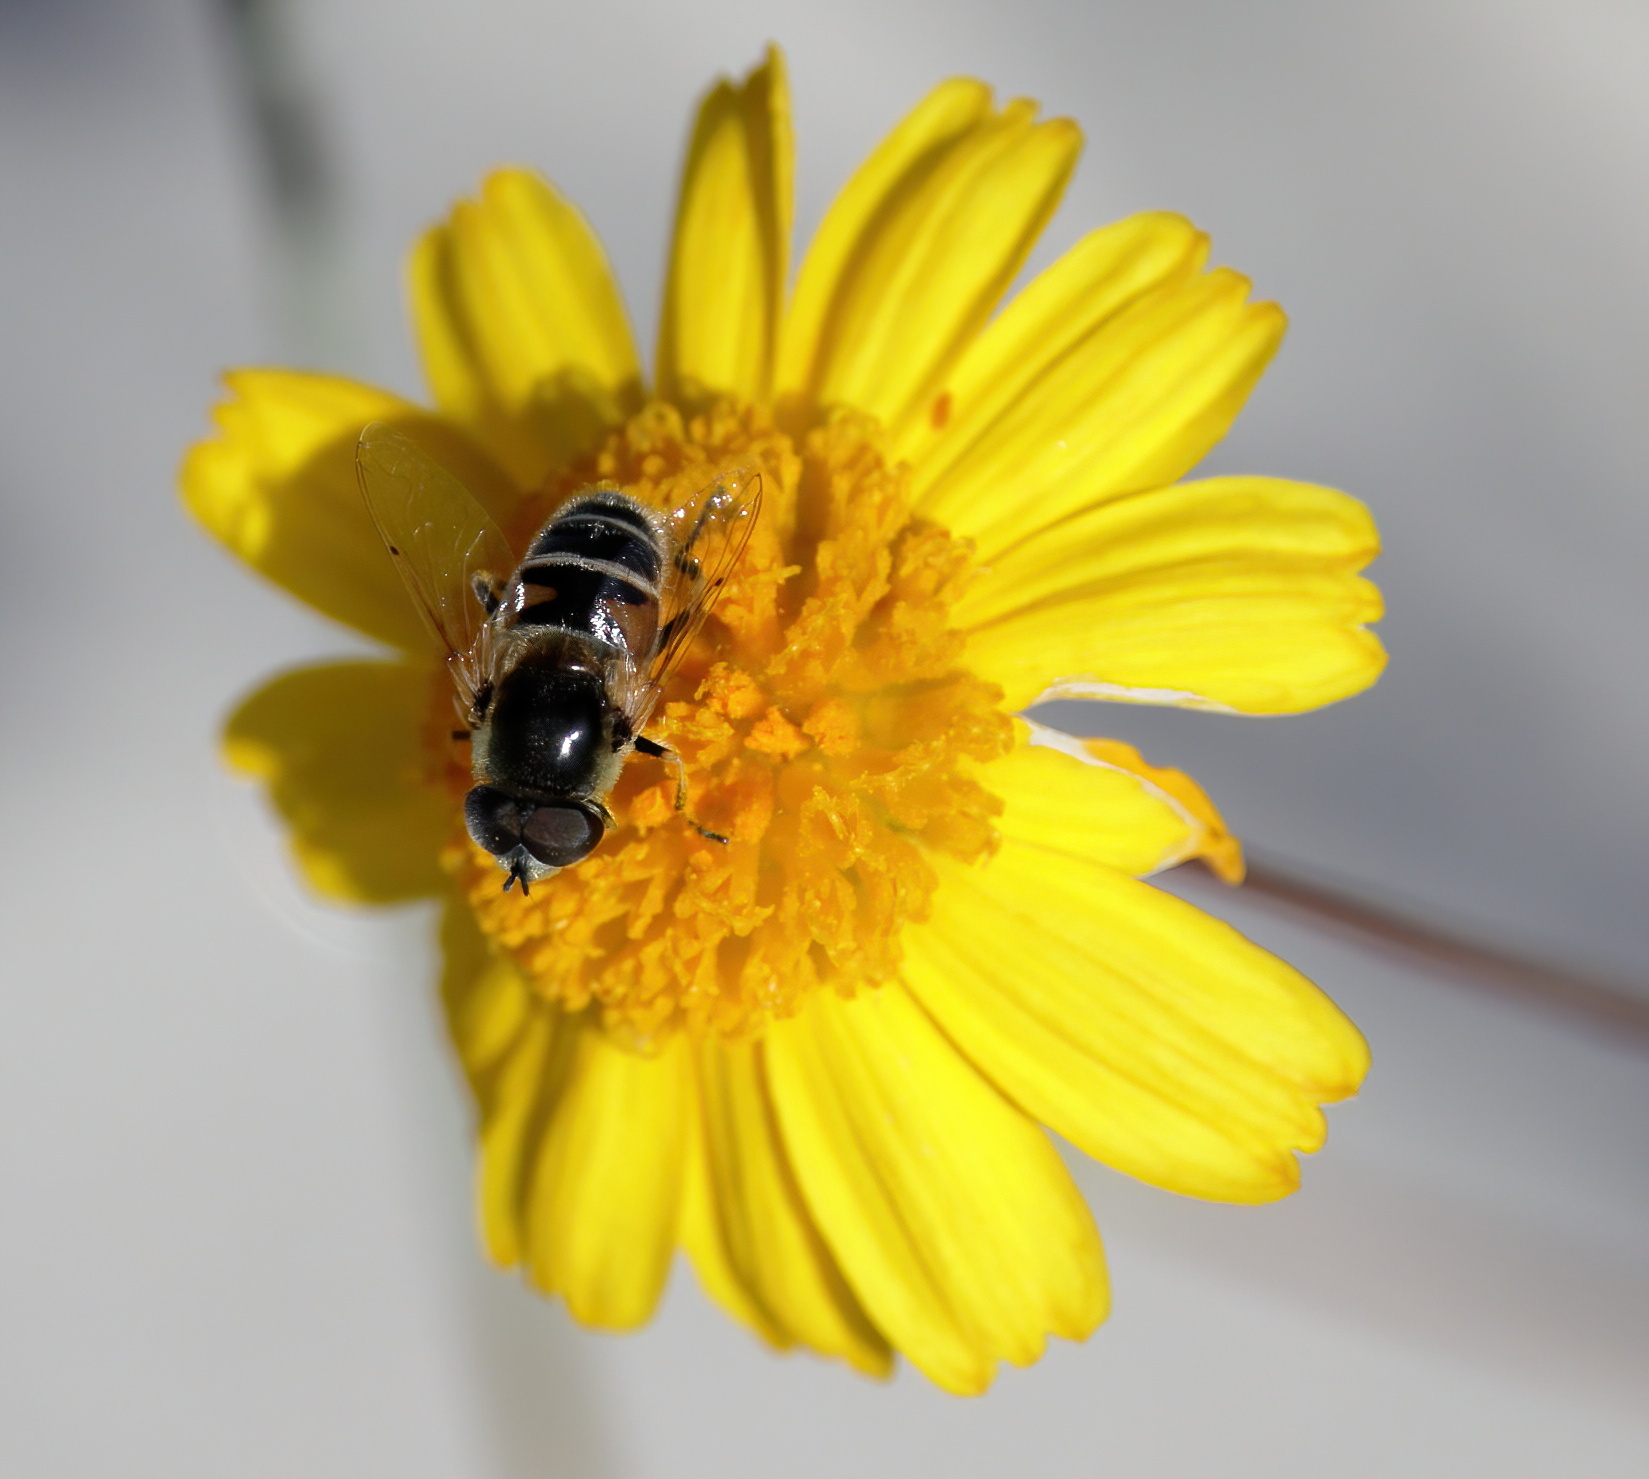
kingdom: Animalia
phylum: Arthropoda
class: Insecta
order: Diptera
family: Syrphidae
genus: Eristalis
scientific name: Eristalis stipator
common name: Yellow-shouldered drone fly
